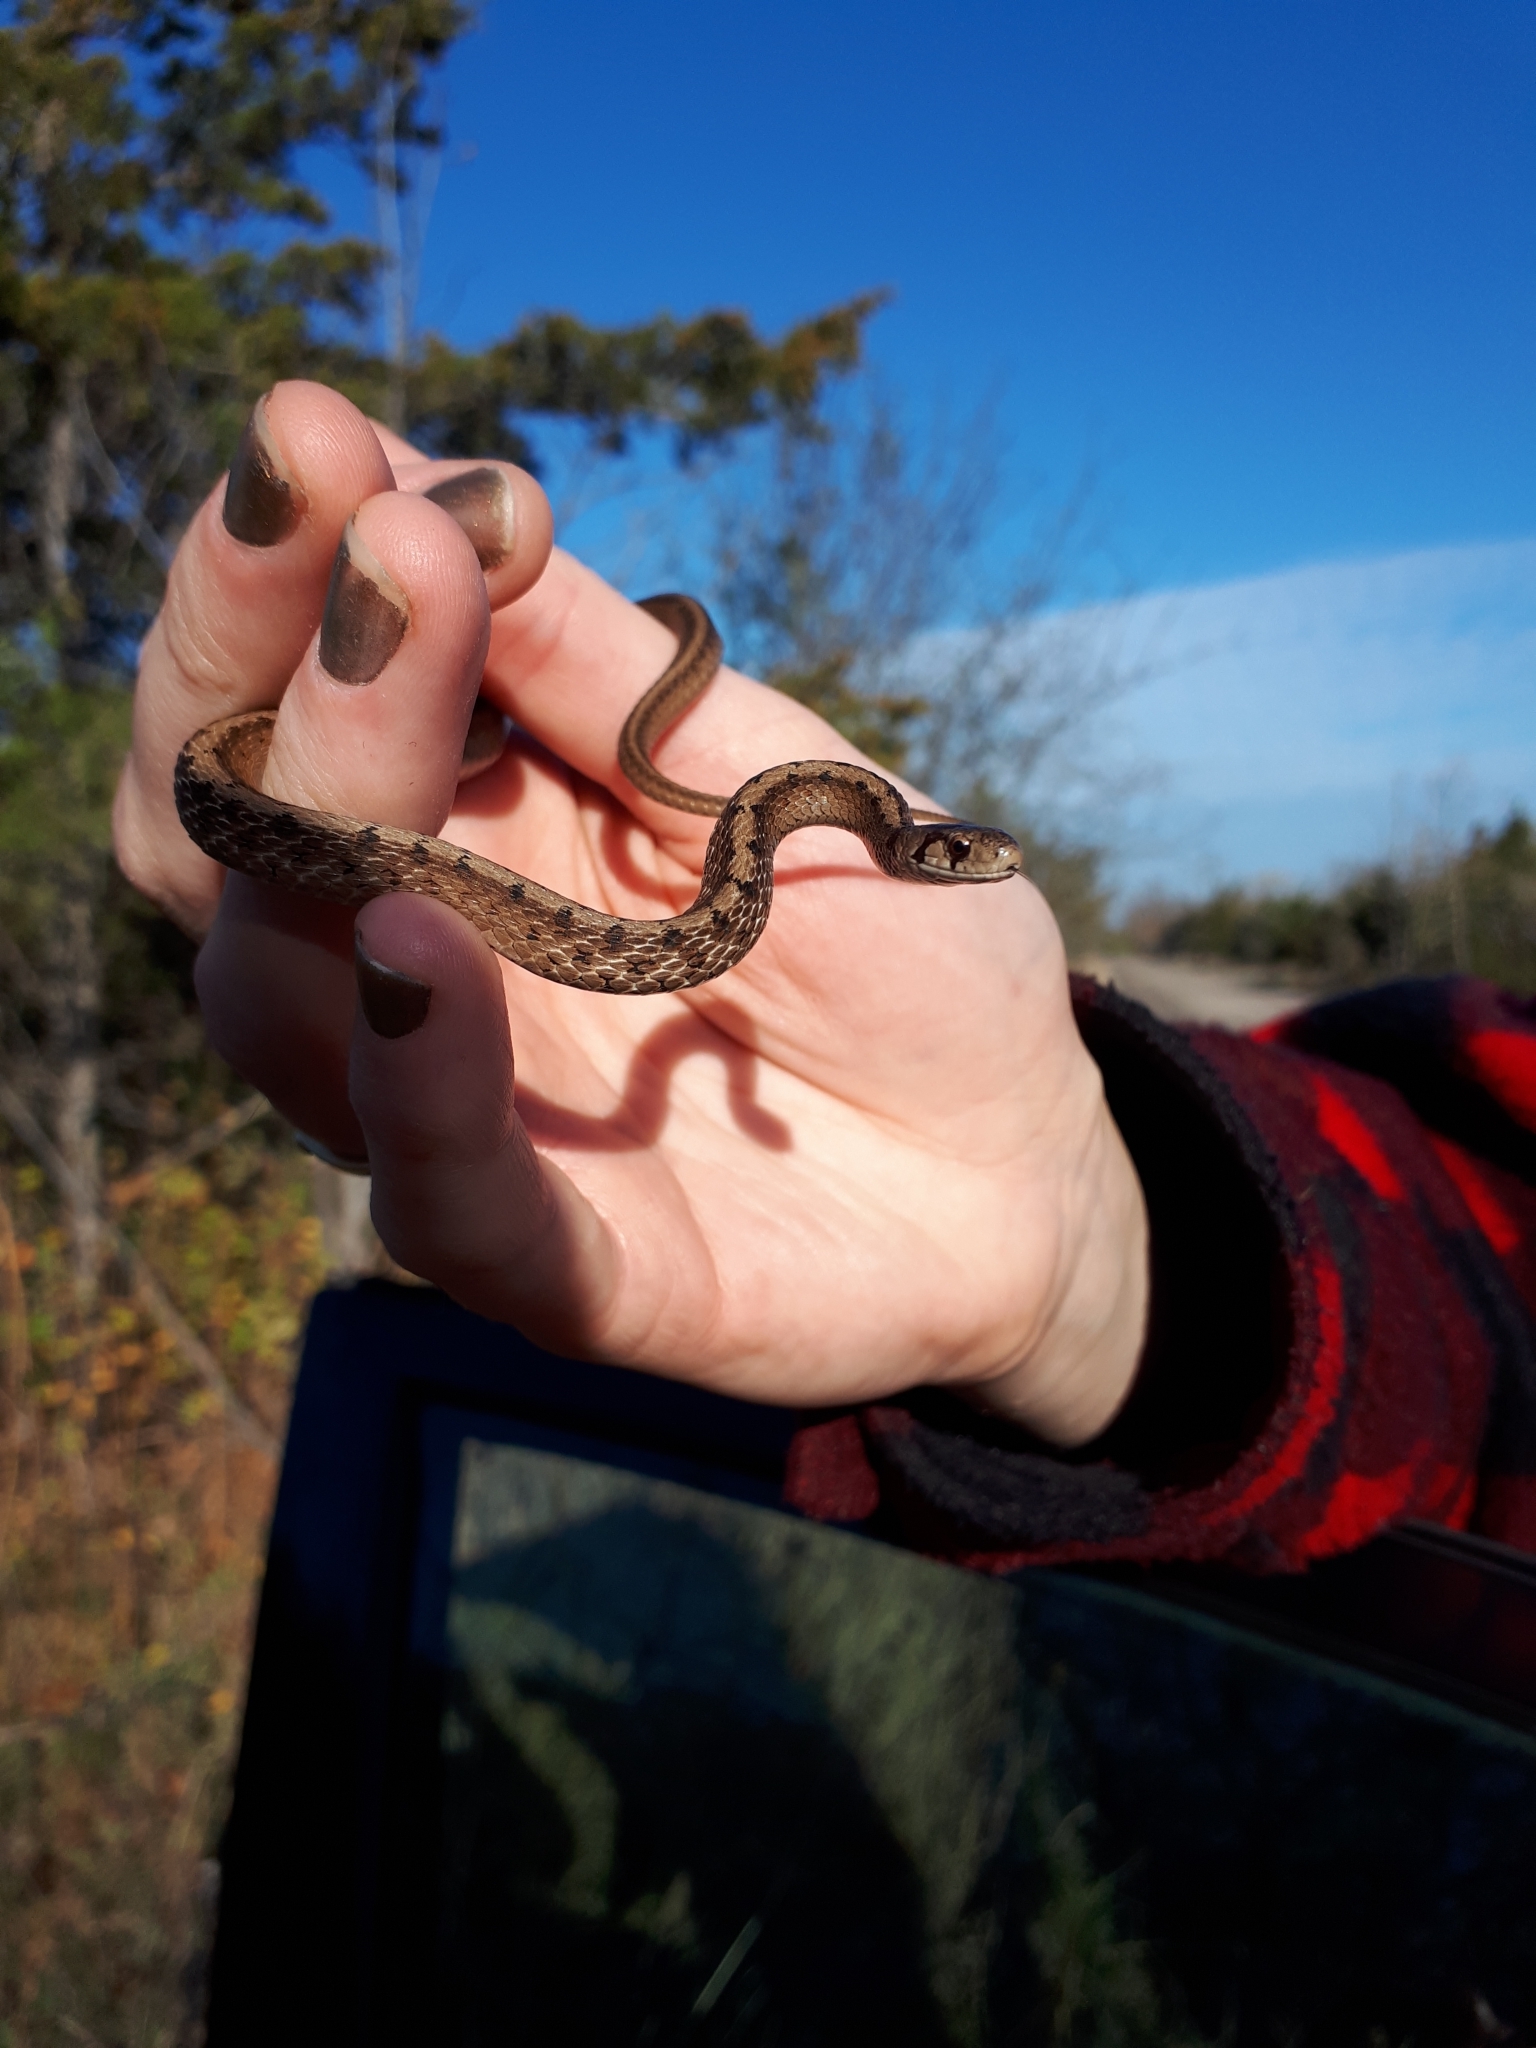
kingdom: Animalia
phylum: Chordata
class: Squamata
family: Colubridae
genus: Storeria
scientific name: Storeria dekayi
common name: (dekay’s) brown snake
